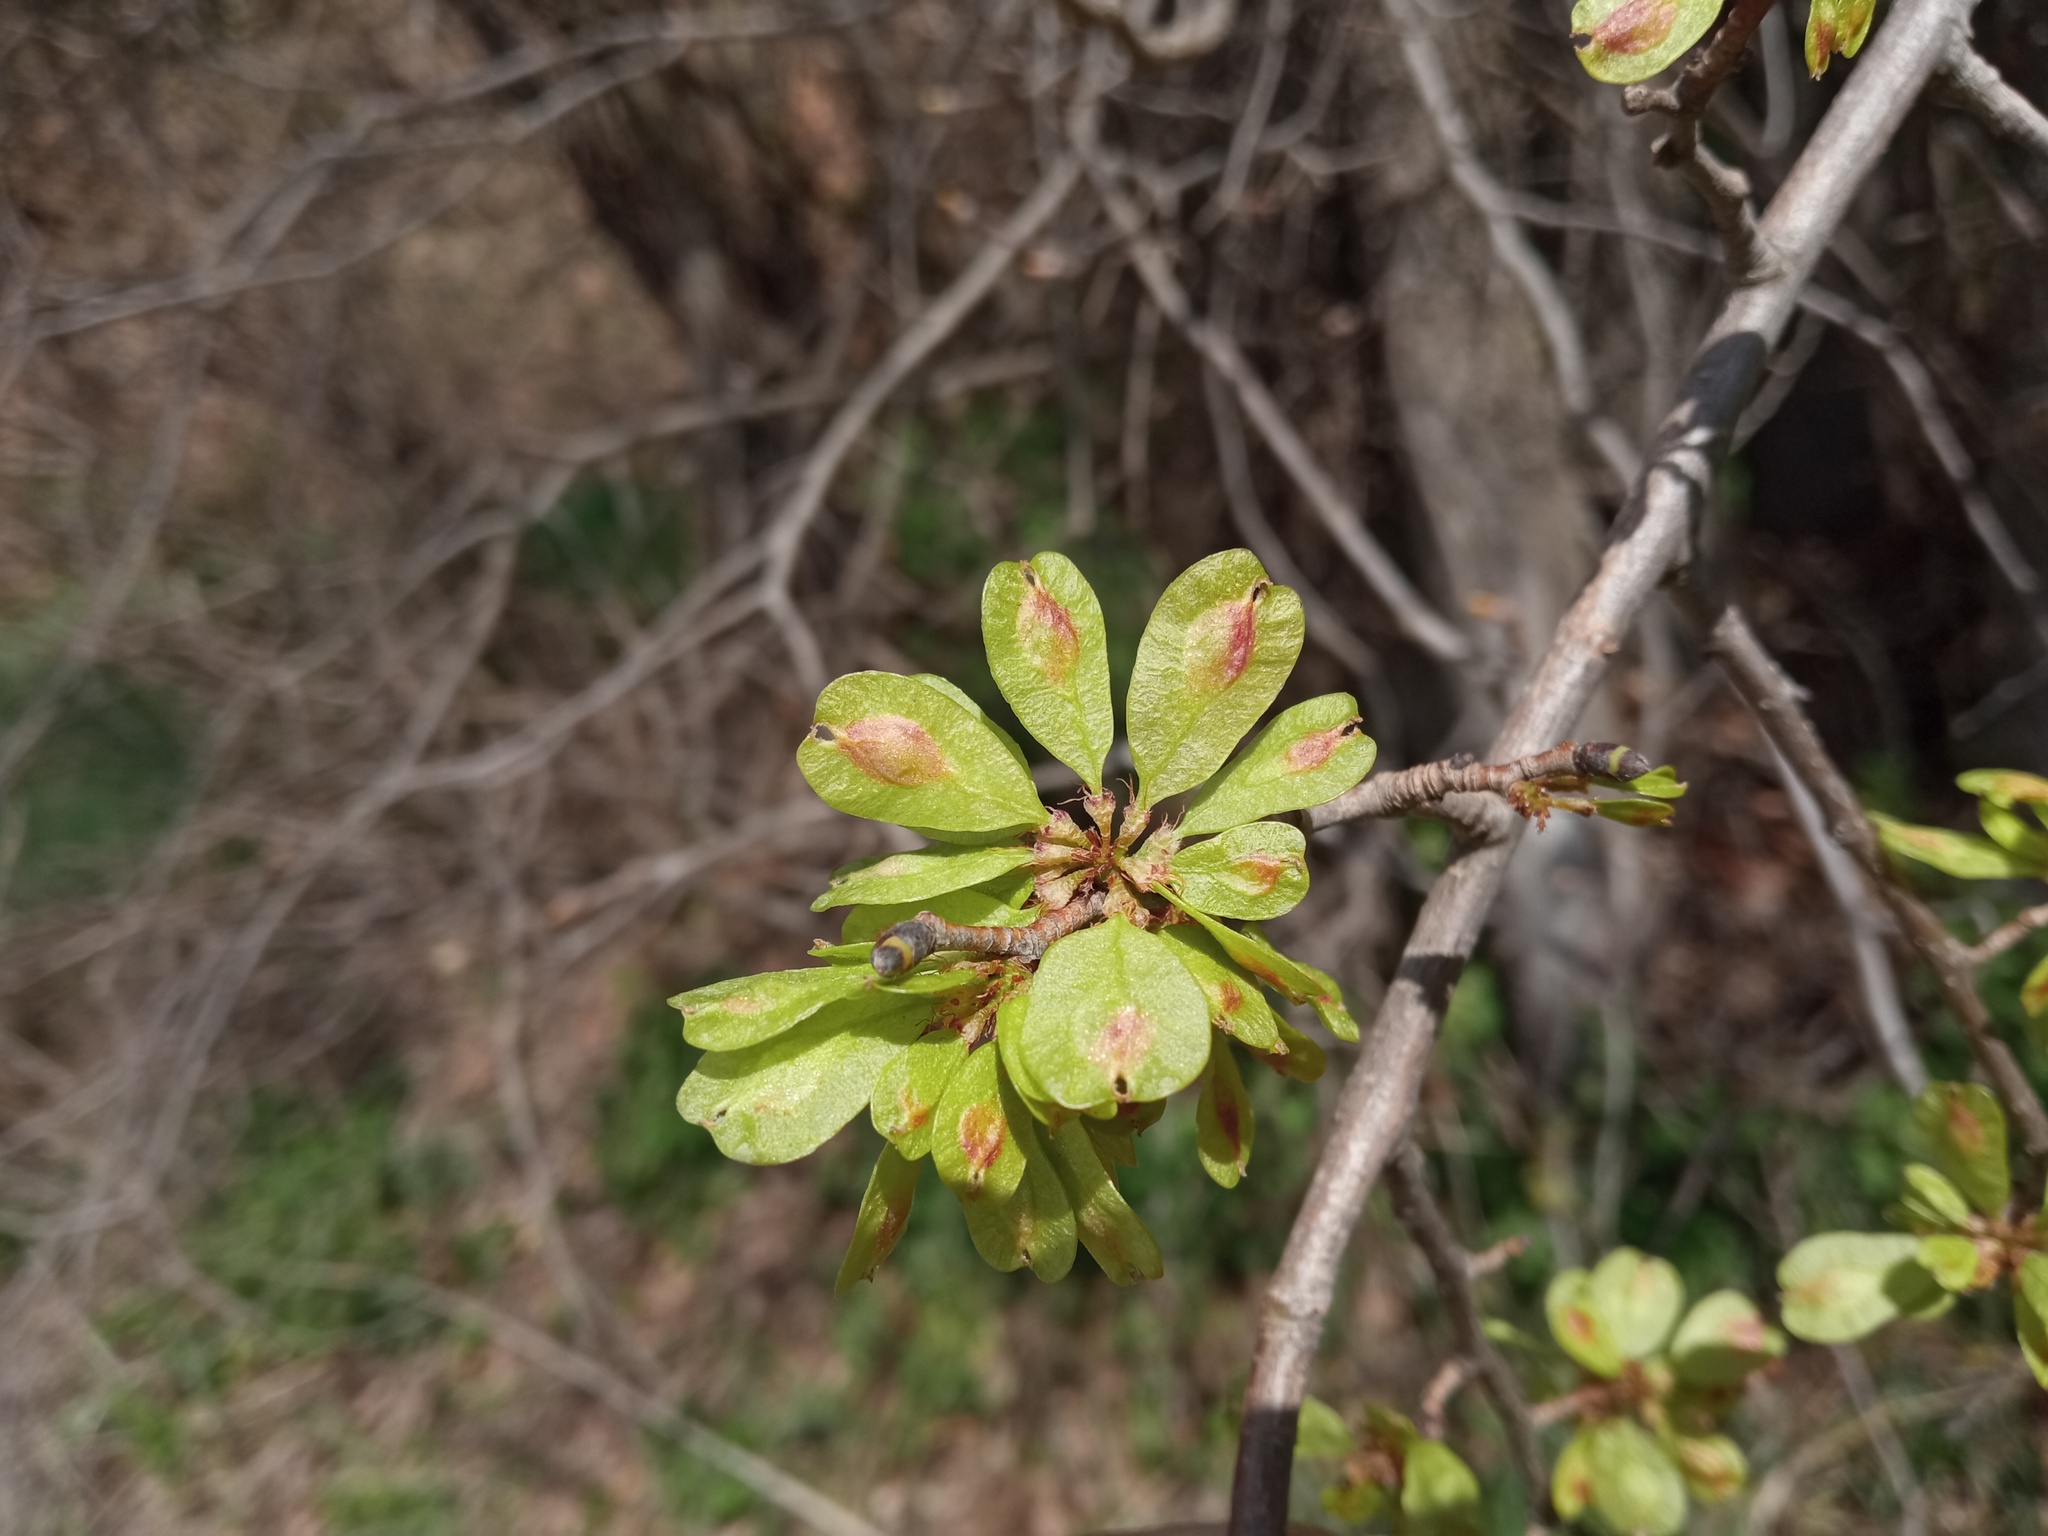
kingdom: Plantae
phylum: Tracheophyta
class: Magnoliopsida
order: Rosales
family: Ulmaceae
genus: Ulmus
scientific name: Ulmus minor
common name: Small-leaved elm
